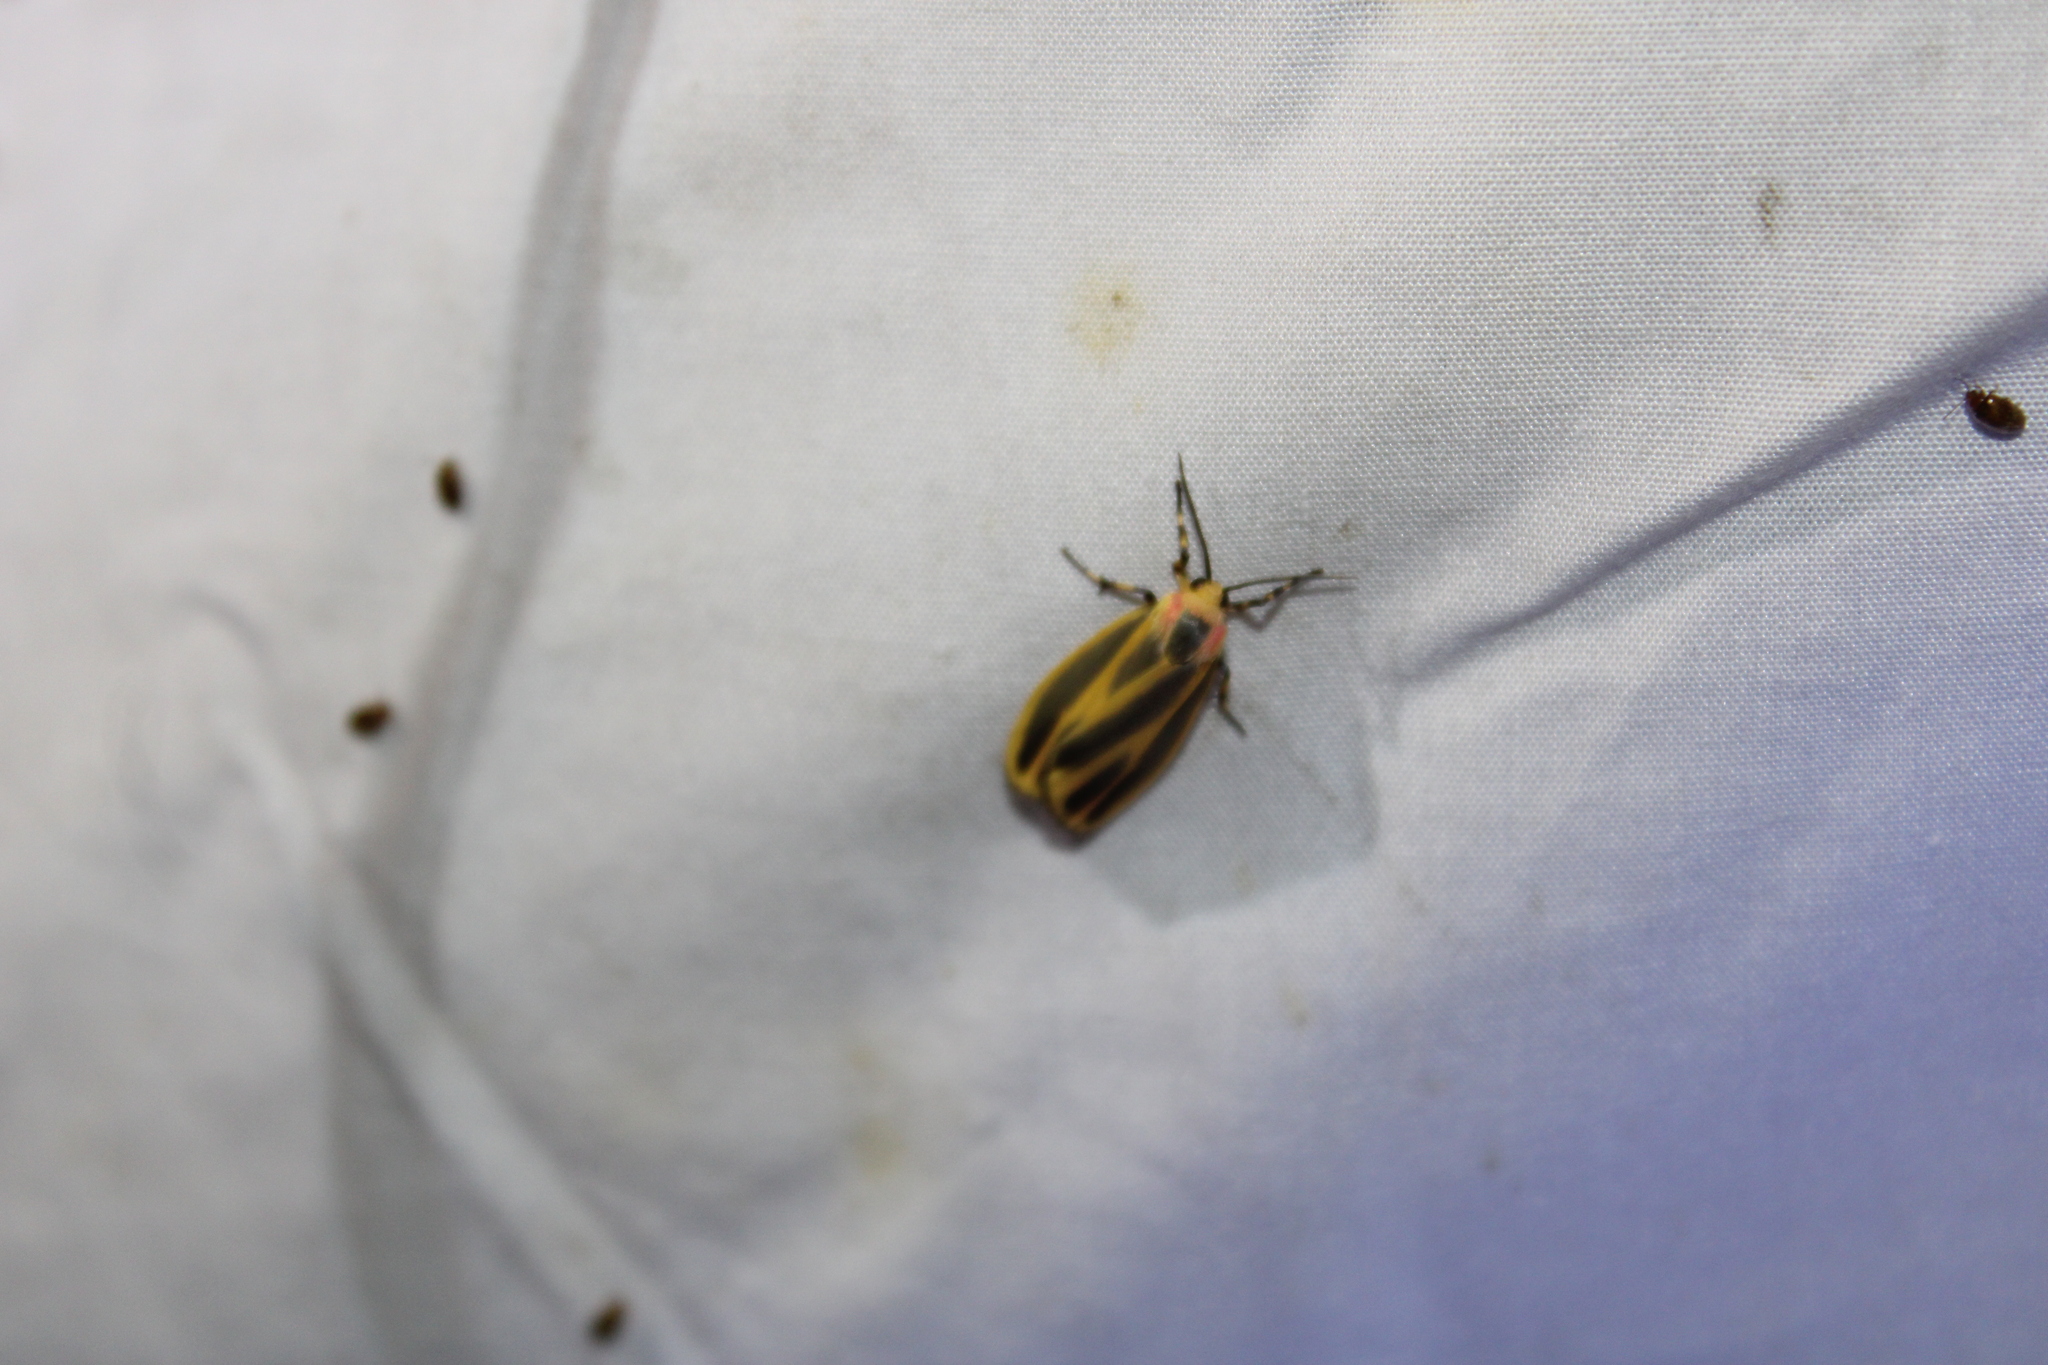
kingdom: Animalia
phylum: Arthropoda
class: Insecta
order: Lepidoptera
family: Erebidae
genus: Hypoprepia
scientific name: Hypoprepia fucosa
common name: Painted lichen moth
